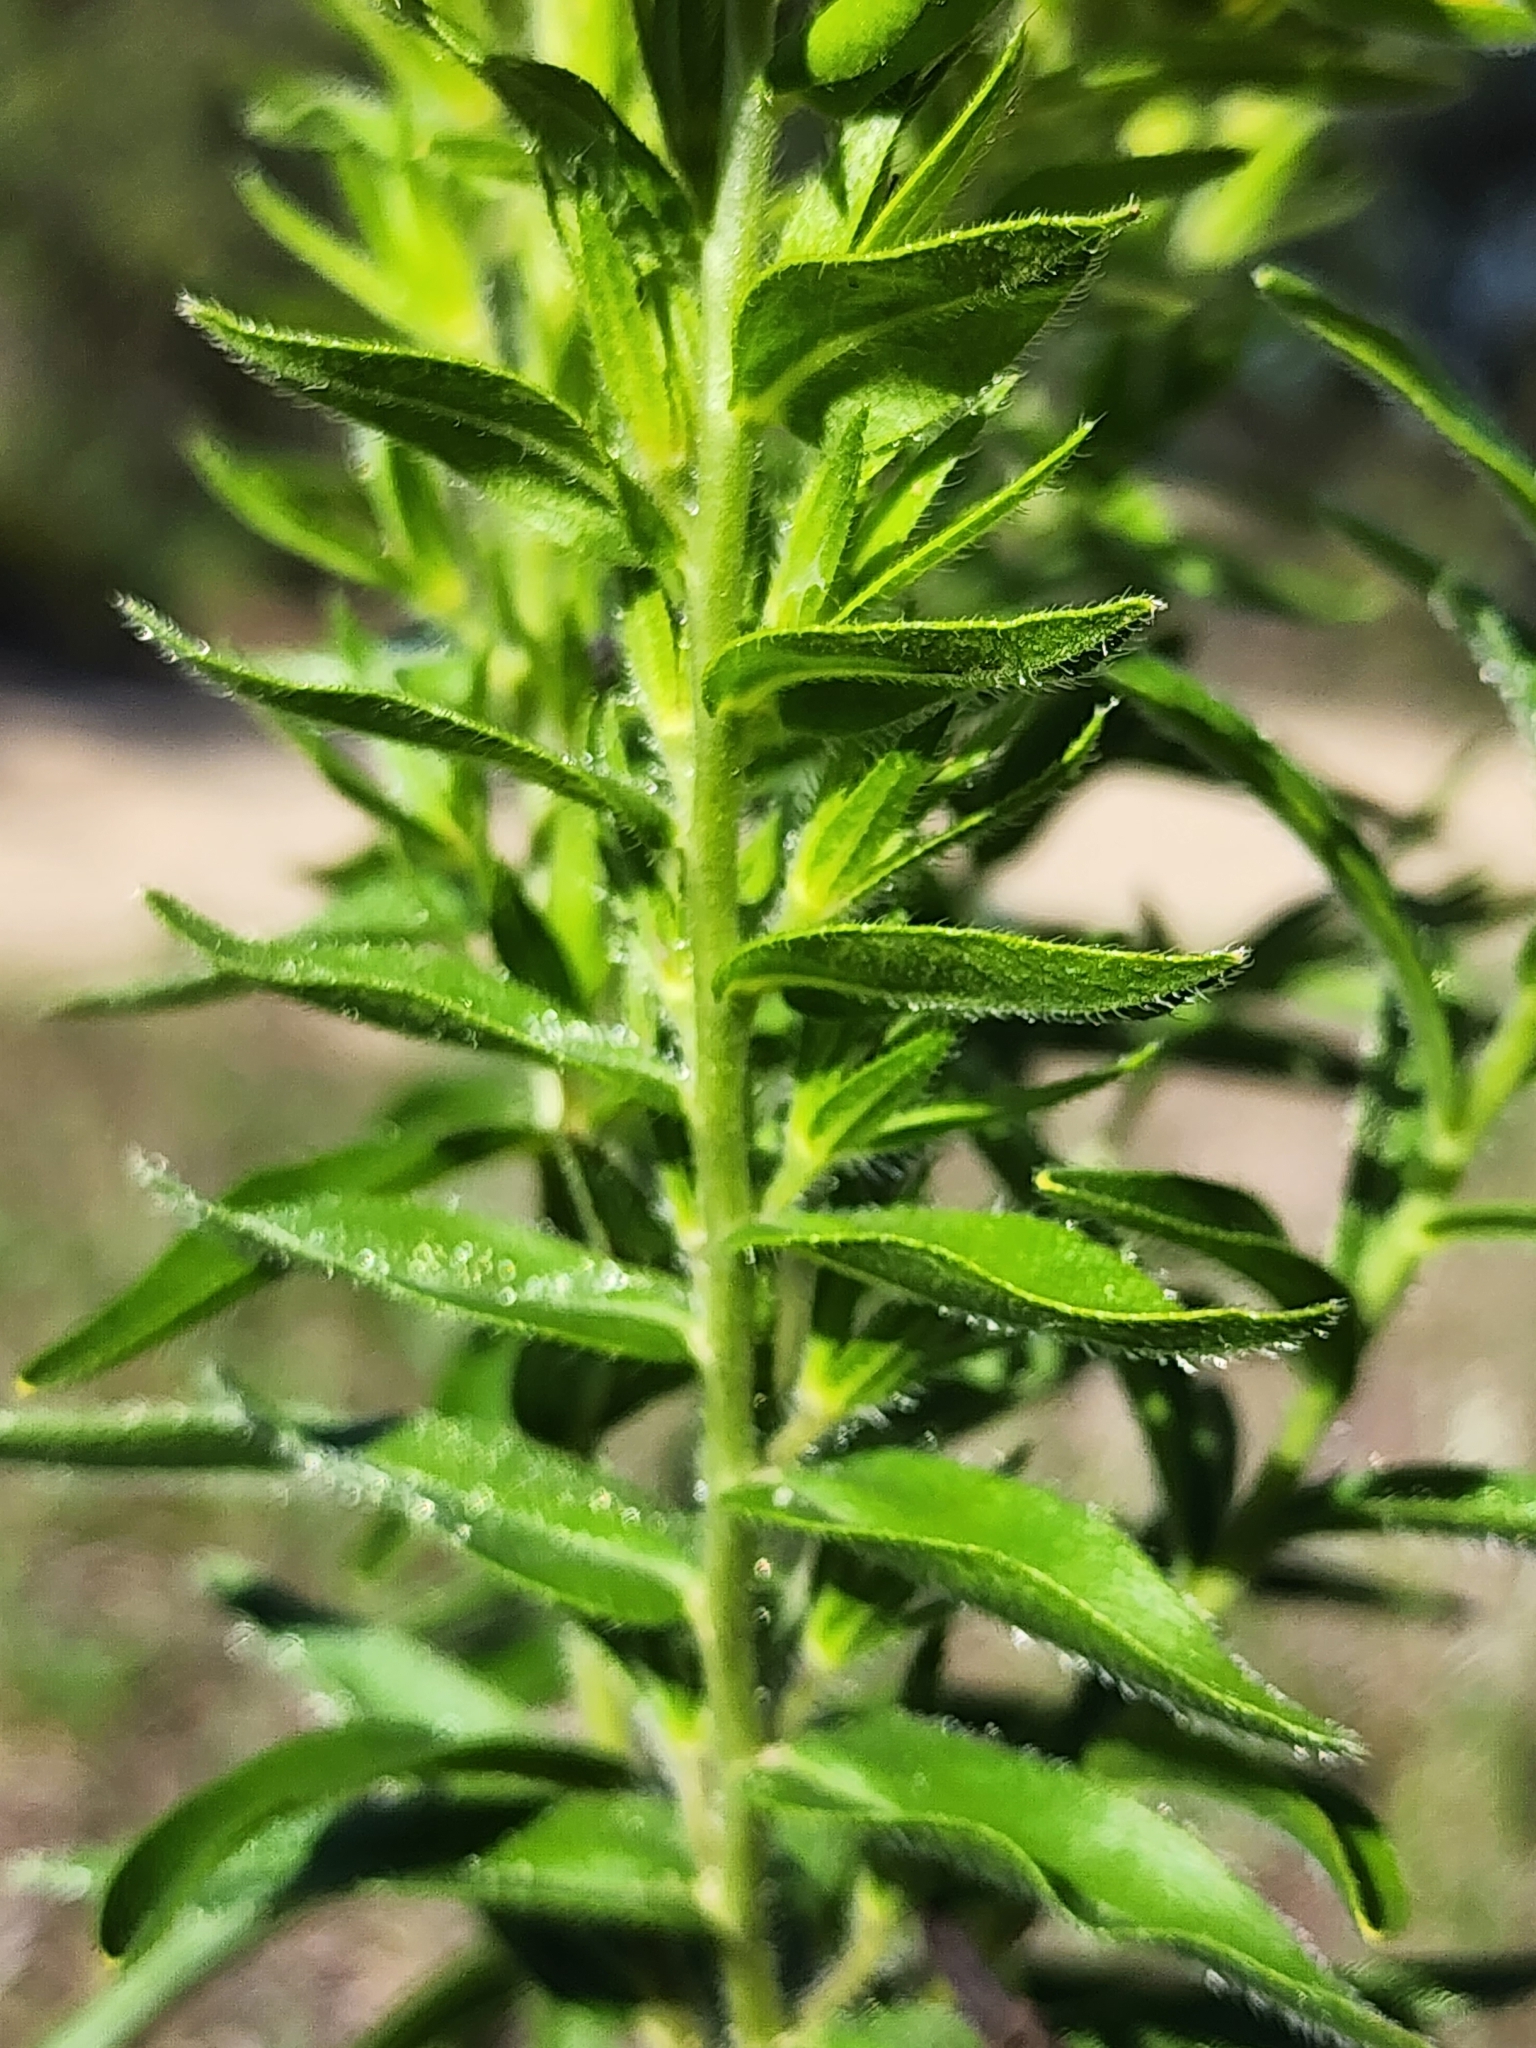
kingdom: Plantae
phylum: Tracheophyta
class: Magnoliopsida
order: Boraginales
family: Boraginaceae
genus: Lithospermum
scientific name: Lithospermum caroliniense
